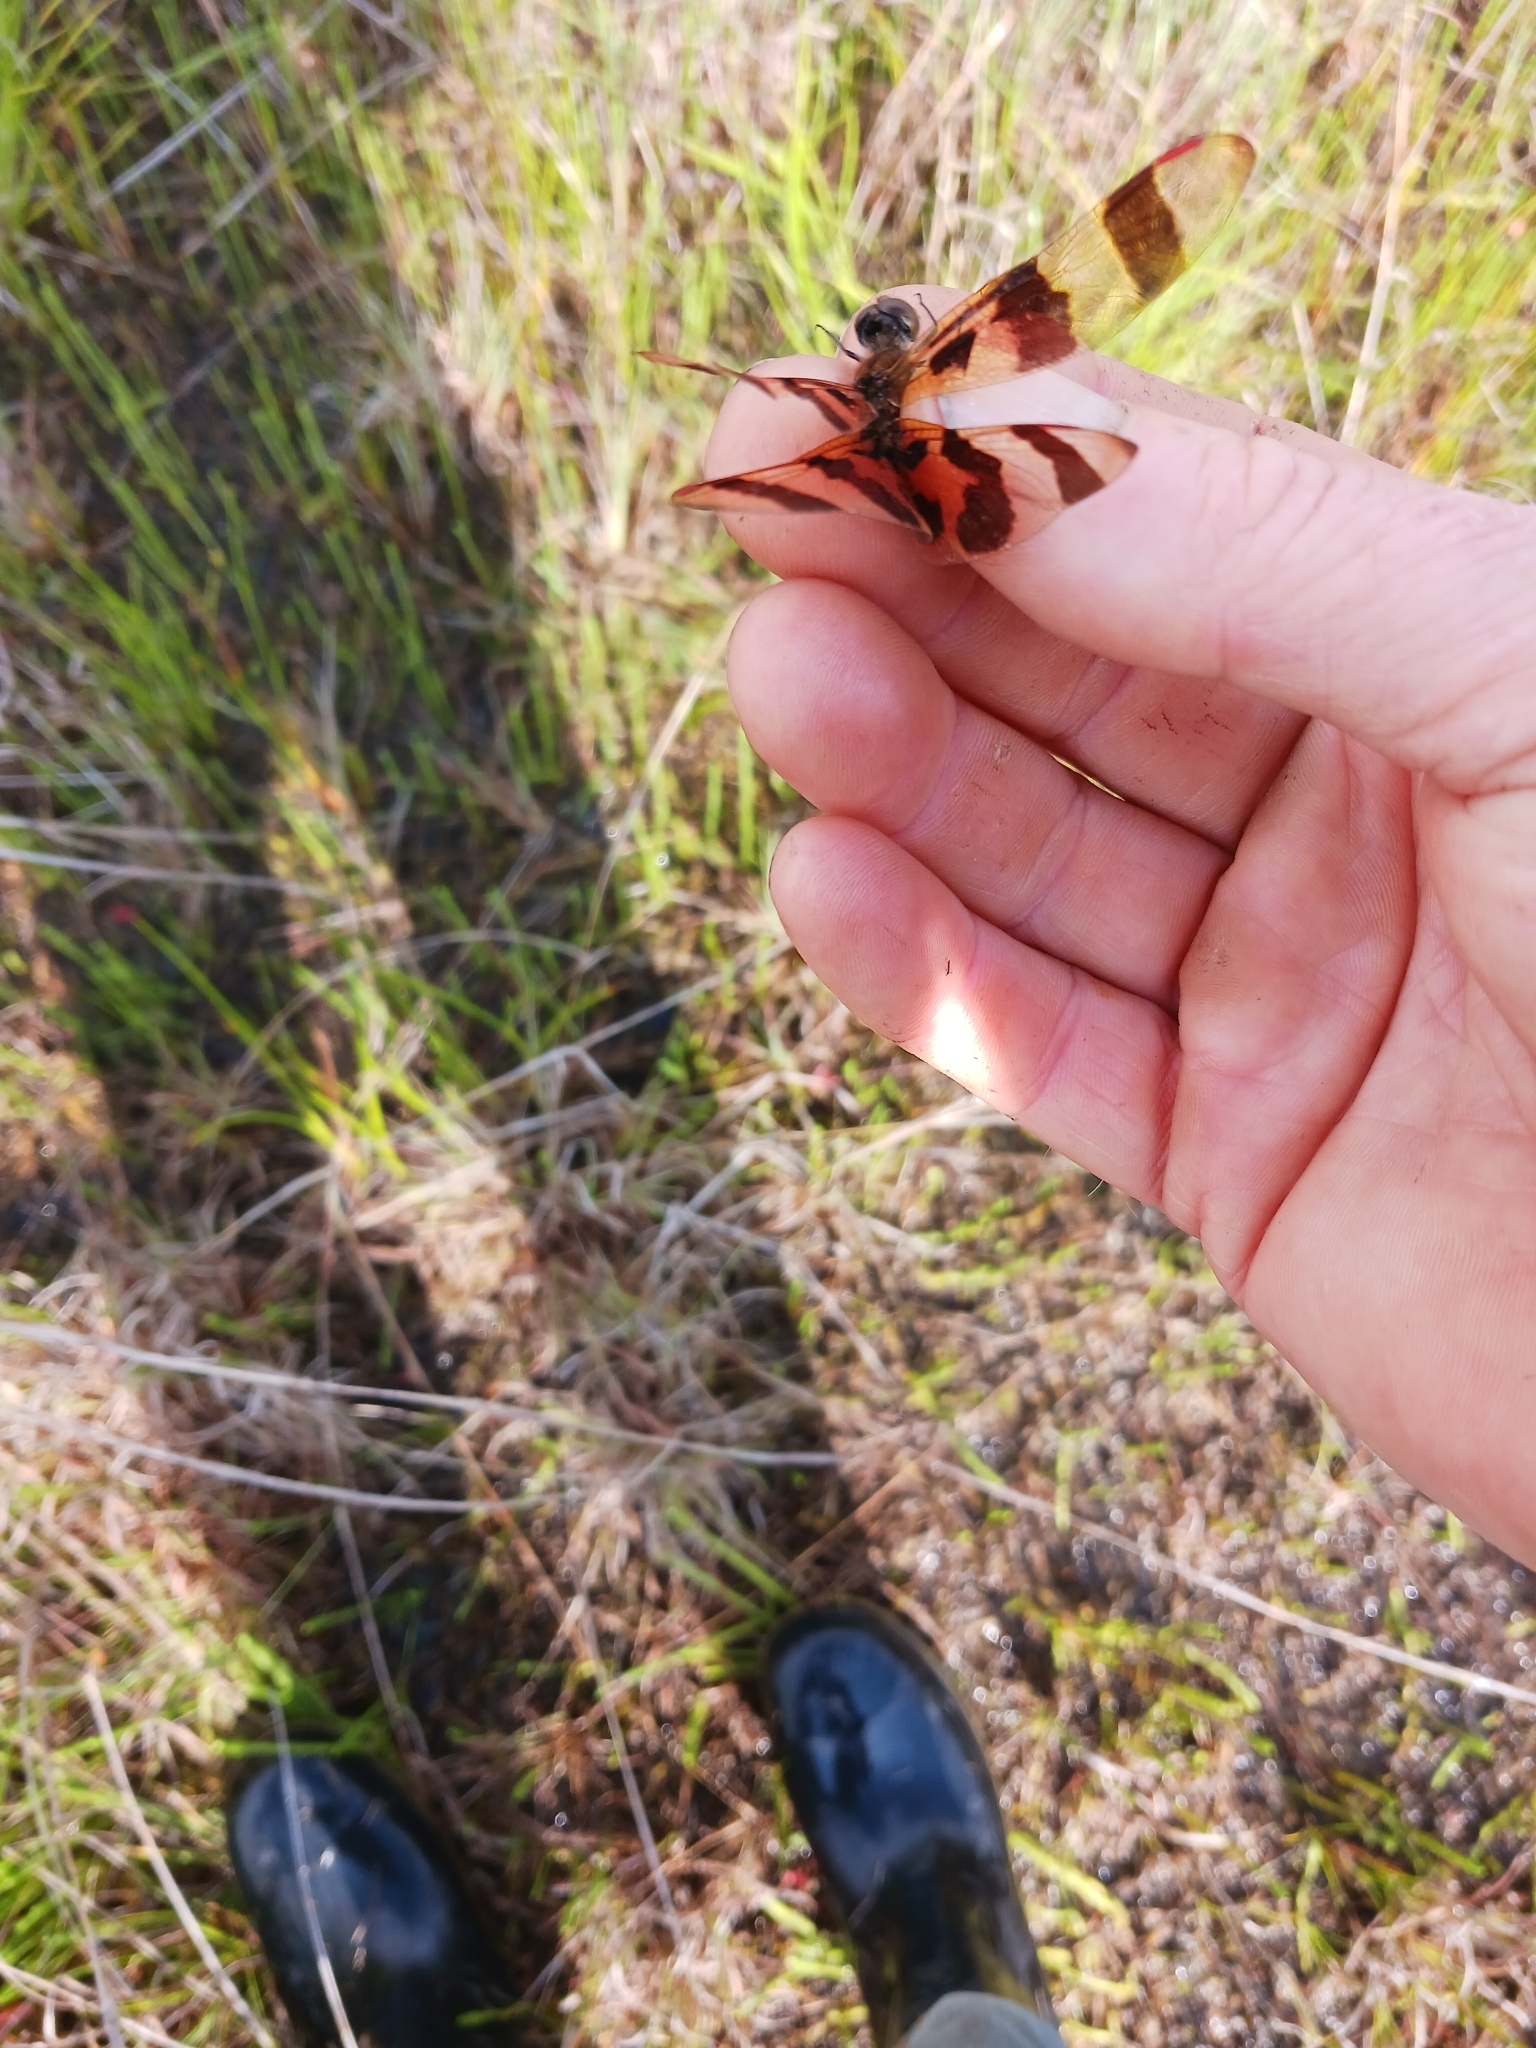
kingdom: Animalia
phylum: Arthropoda
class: Insecta
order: Odonata
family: Libellulidae
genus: Celithemis
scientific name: Celithemis eponina
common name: Halloween pennant
